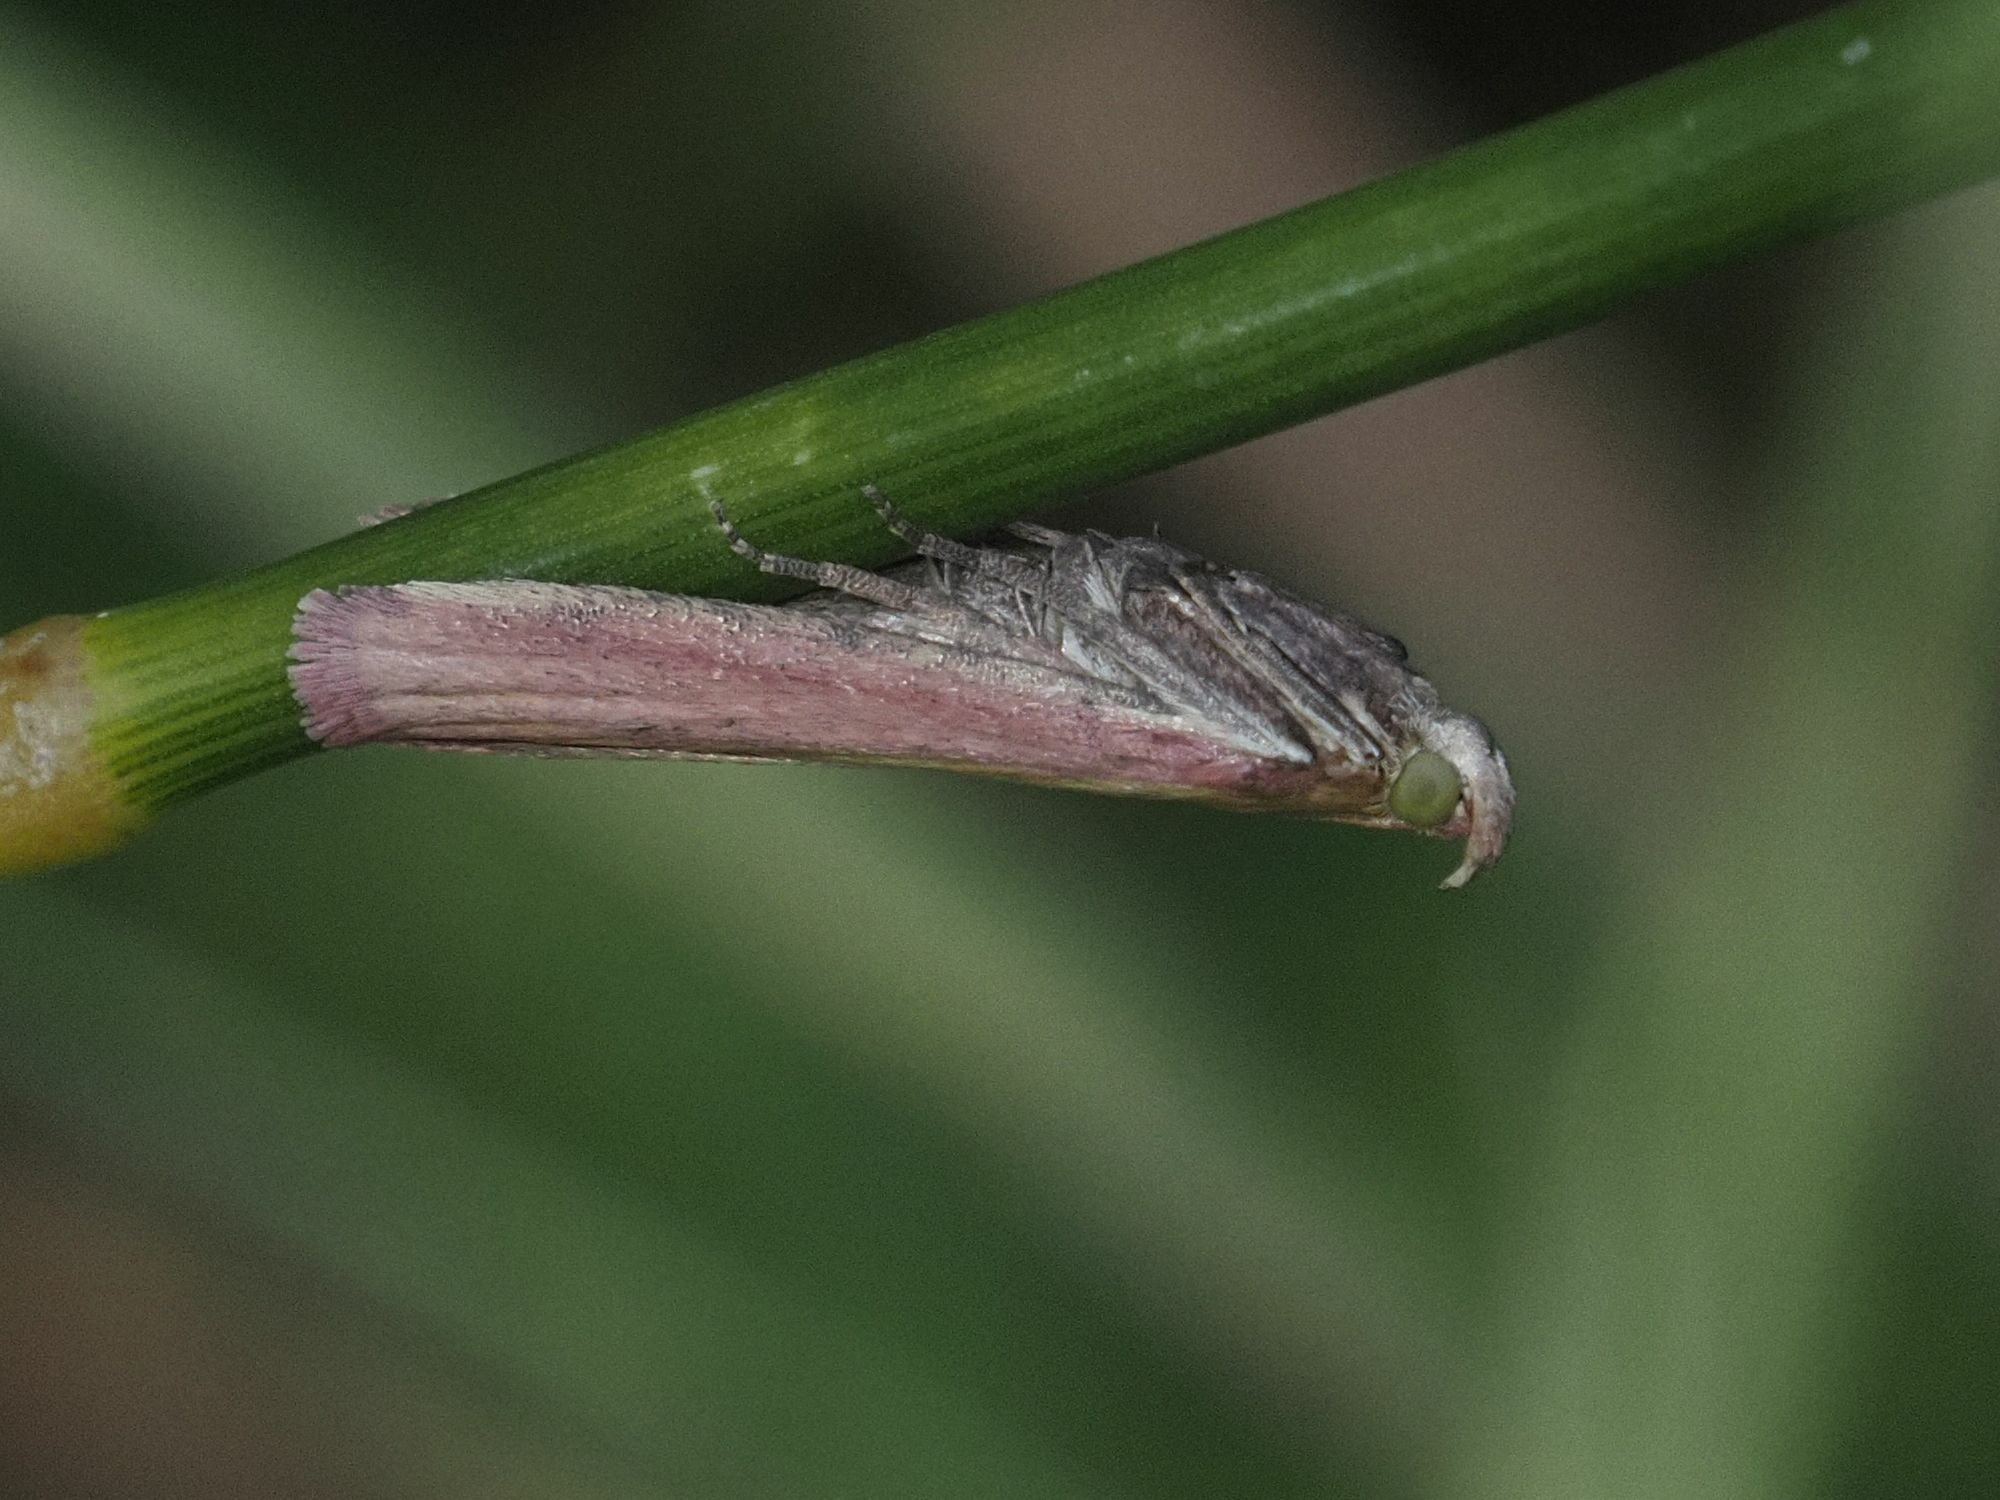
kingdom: Animalia
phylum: Arthropoda
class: Insecta
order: Lepidoptera
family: Pyralidae
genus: Oncocera
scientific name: Oncocera semirubella
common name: Rosy-striped knot-horn
